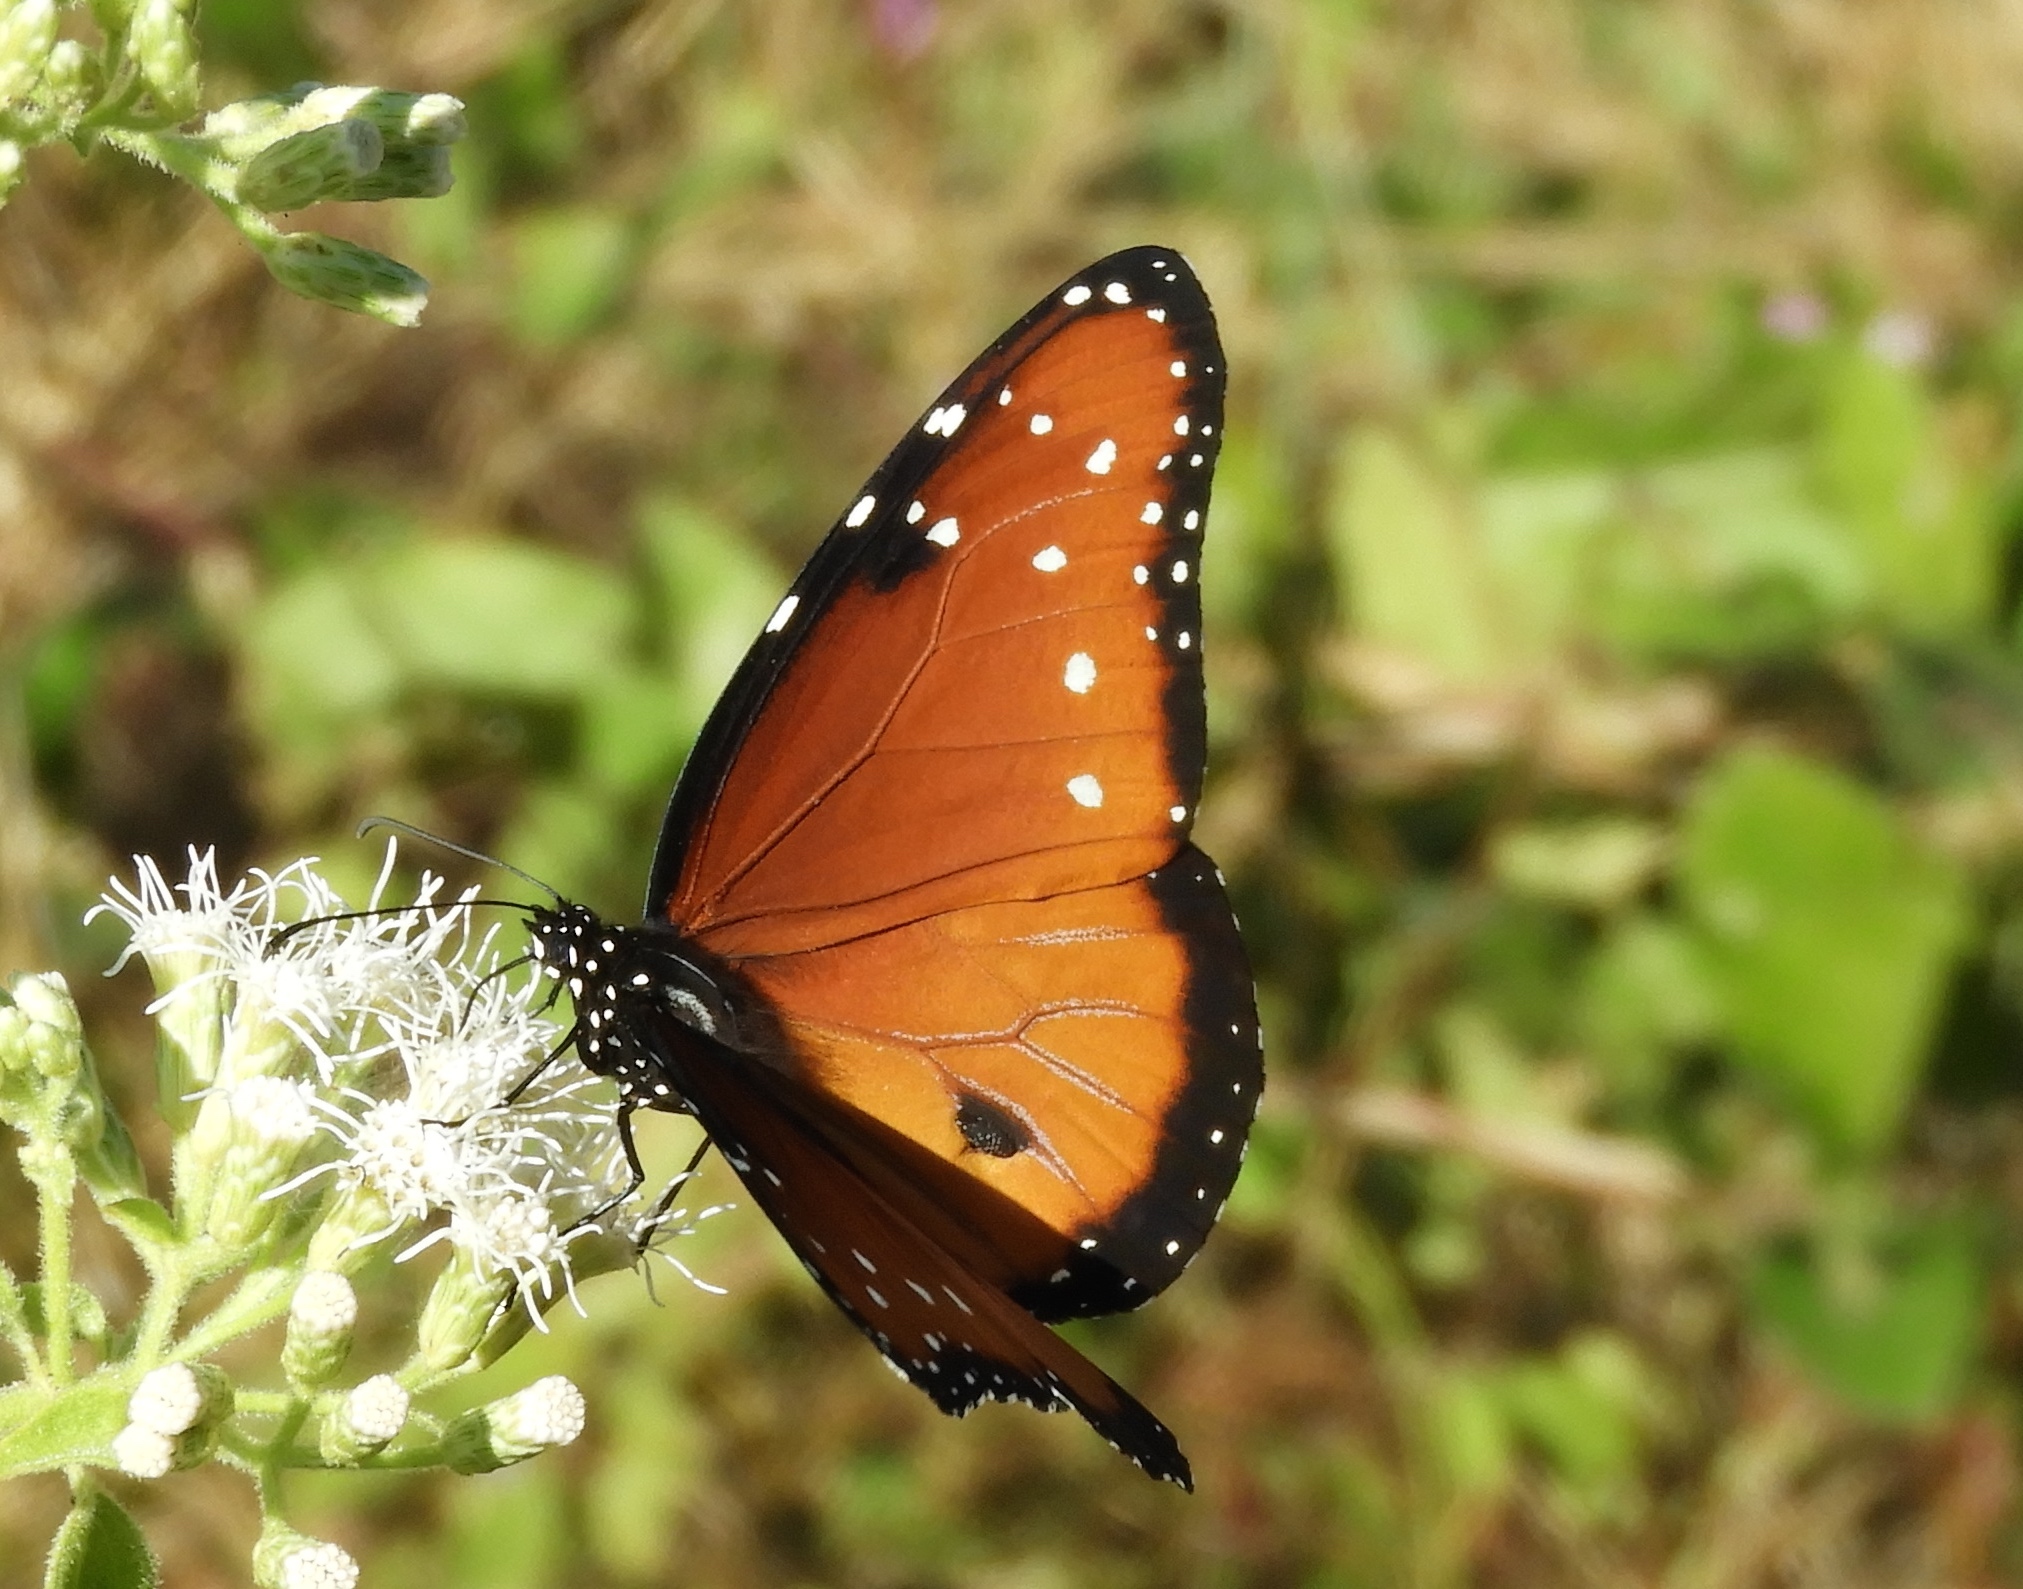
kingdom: Animalia
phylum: Arthropoda
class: Insecta
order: Lepidoptera
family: Nymphalidae
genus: Danaus
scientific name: Danaus gilippus
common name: Queen
